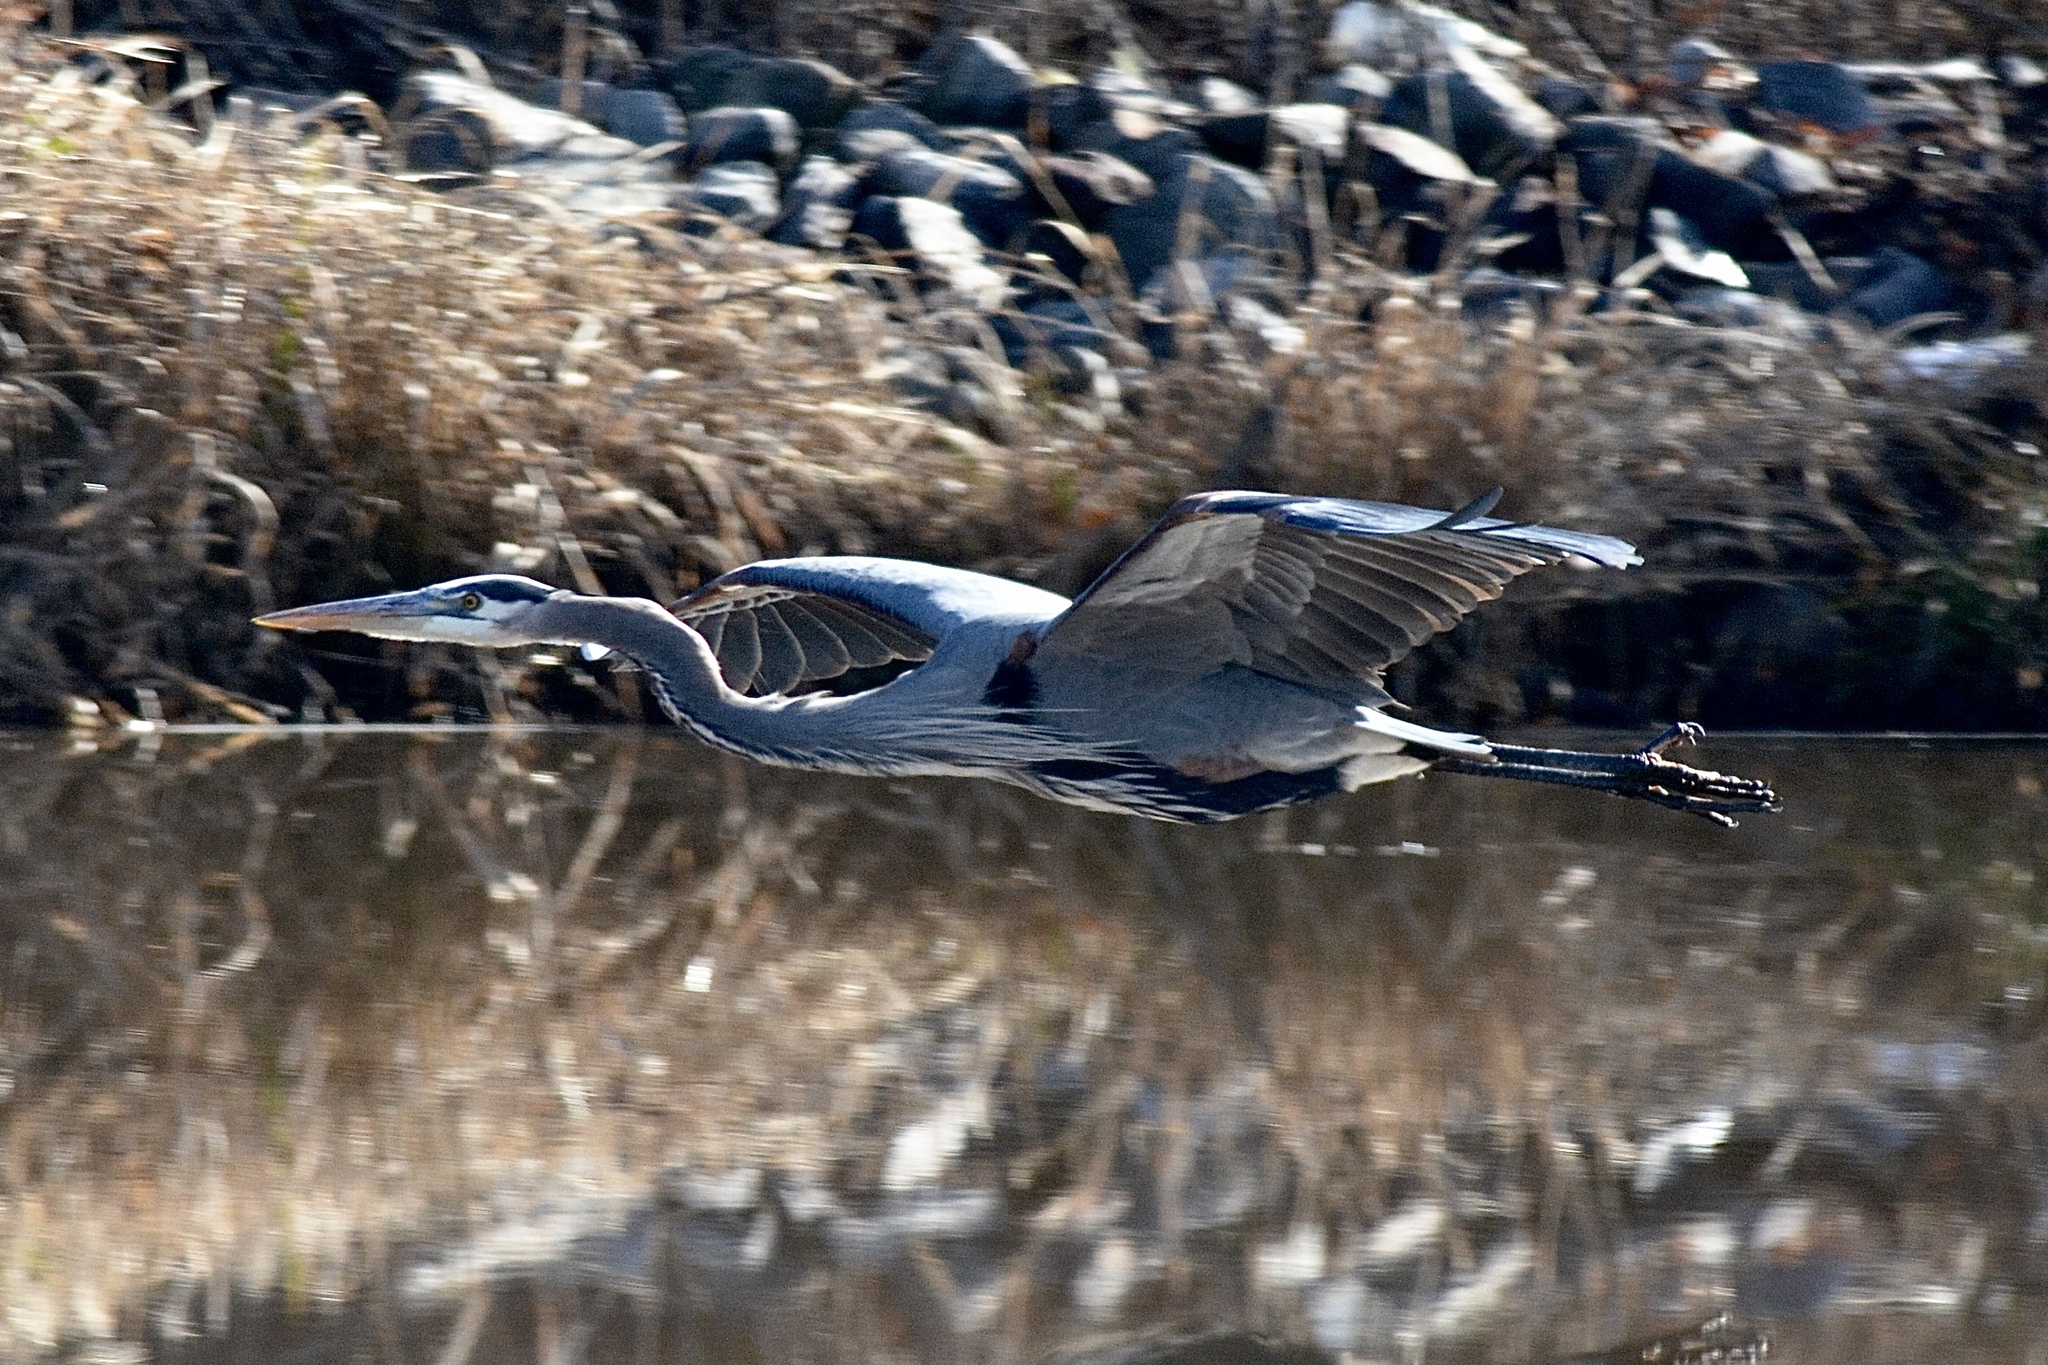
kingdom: Animalia
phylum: Chordata
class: Aves
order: Pelecaniformes
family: Ardeidae
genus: Ardea
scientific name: Ardea herodias
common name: Great blue heron
